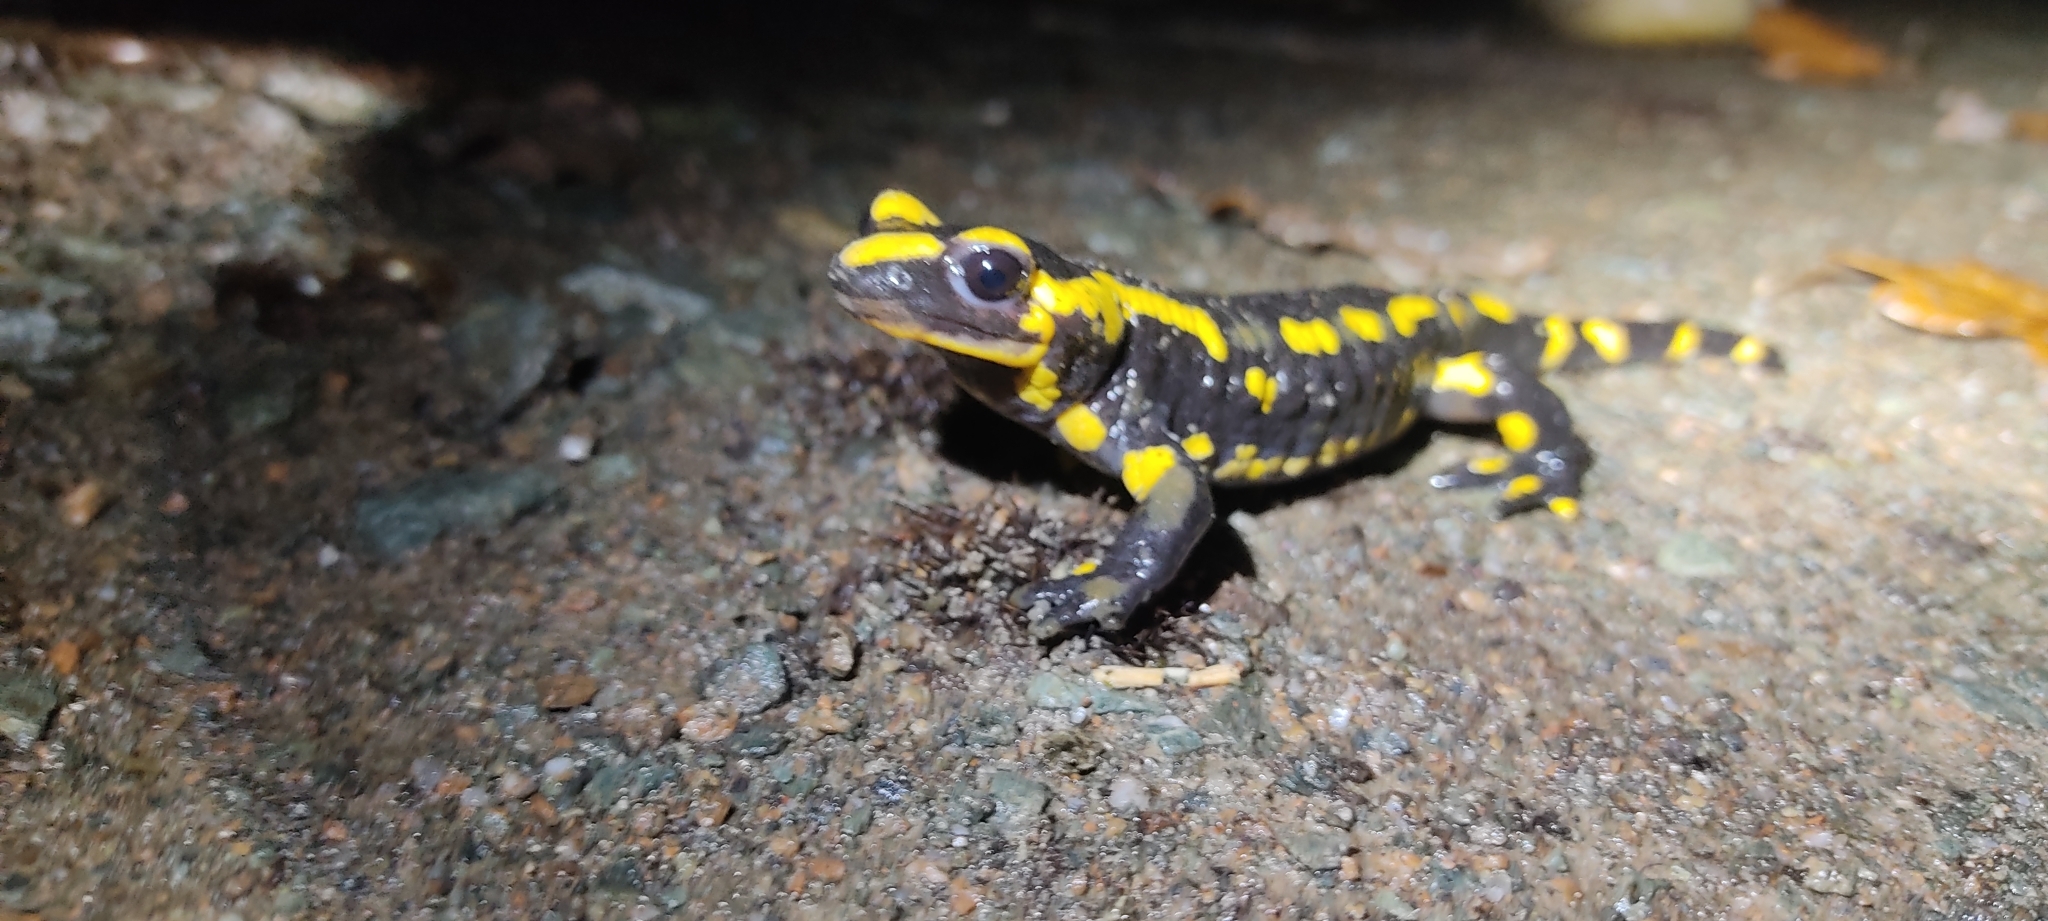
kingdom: Animalia
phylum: Chordata
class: Amphibia
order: Caudata
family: Salamandridae
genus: Salamandra
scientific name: Salamandra salamandra
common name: Fire salamander
